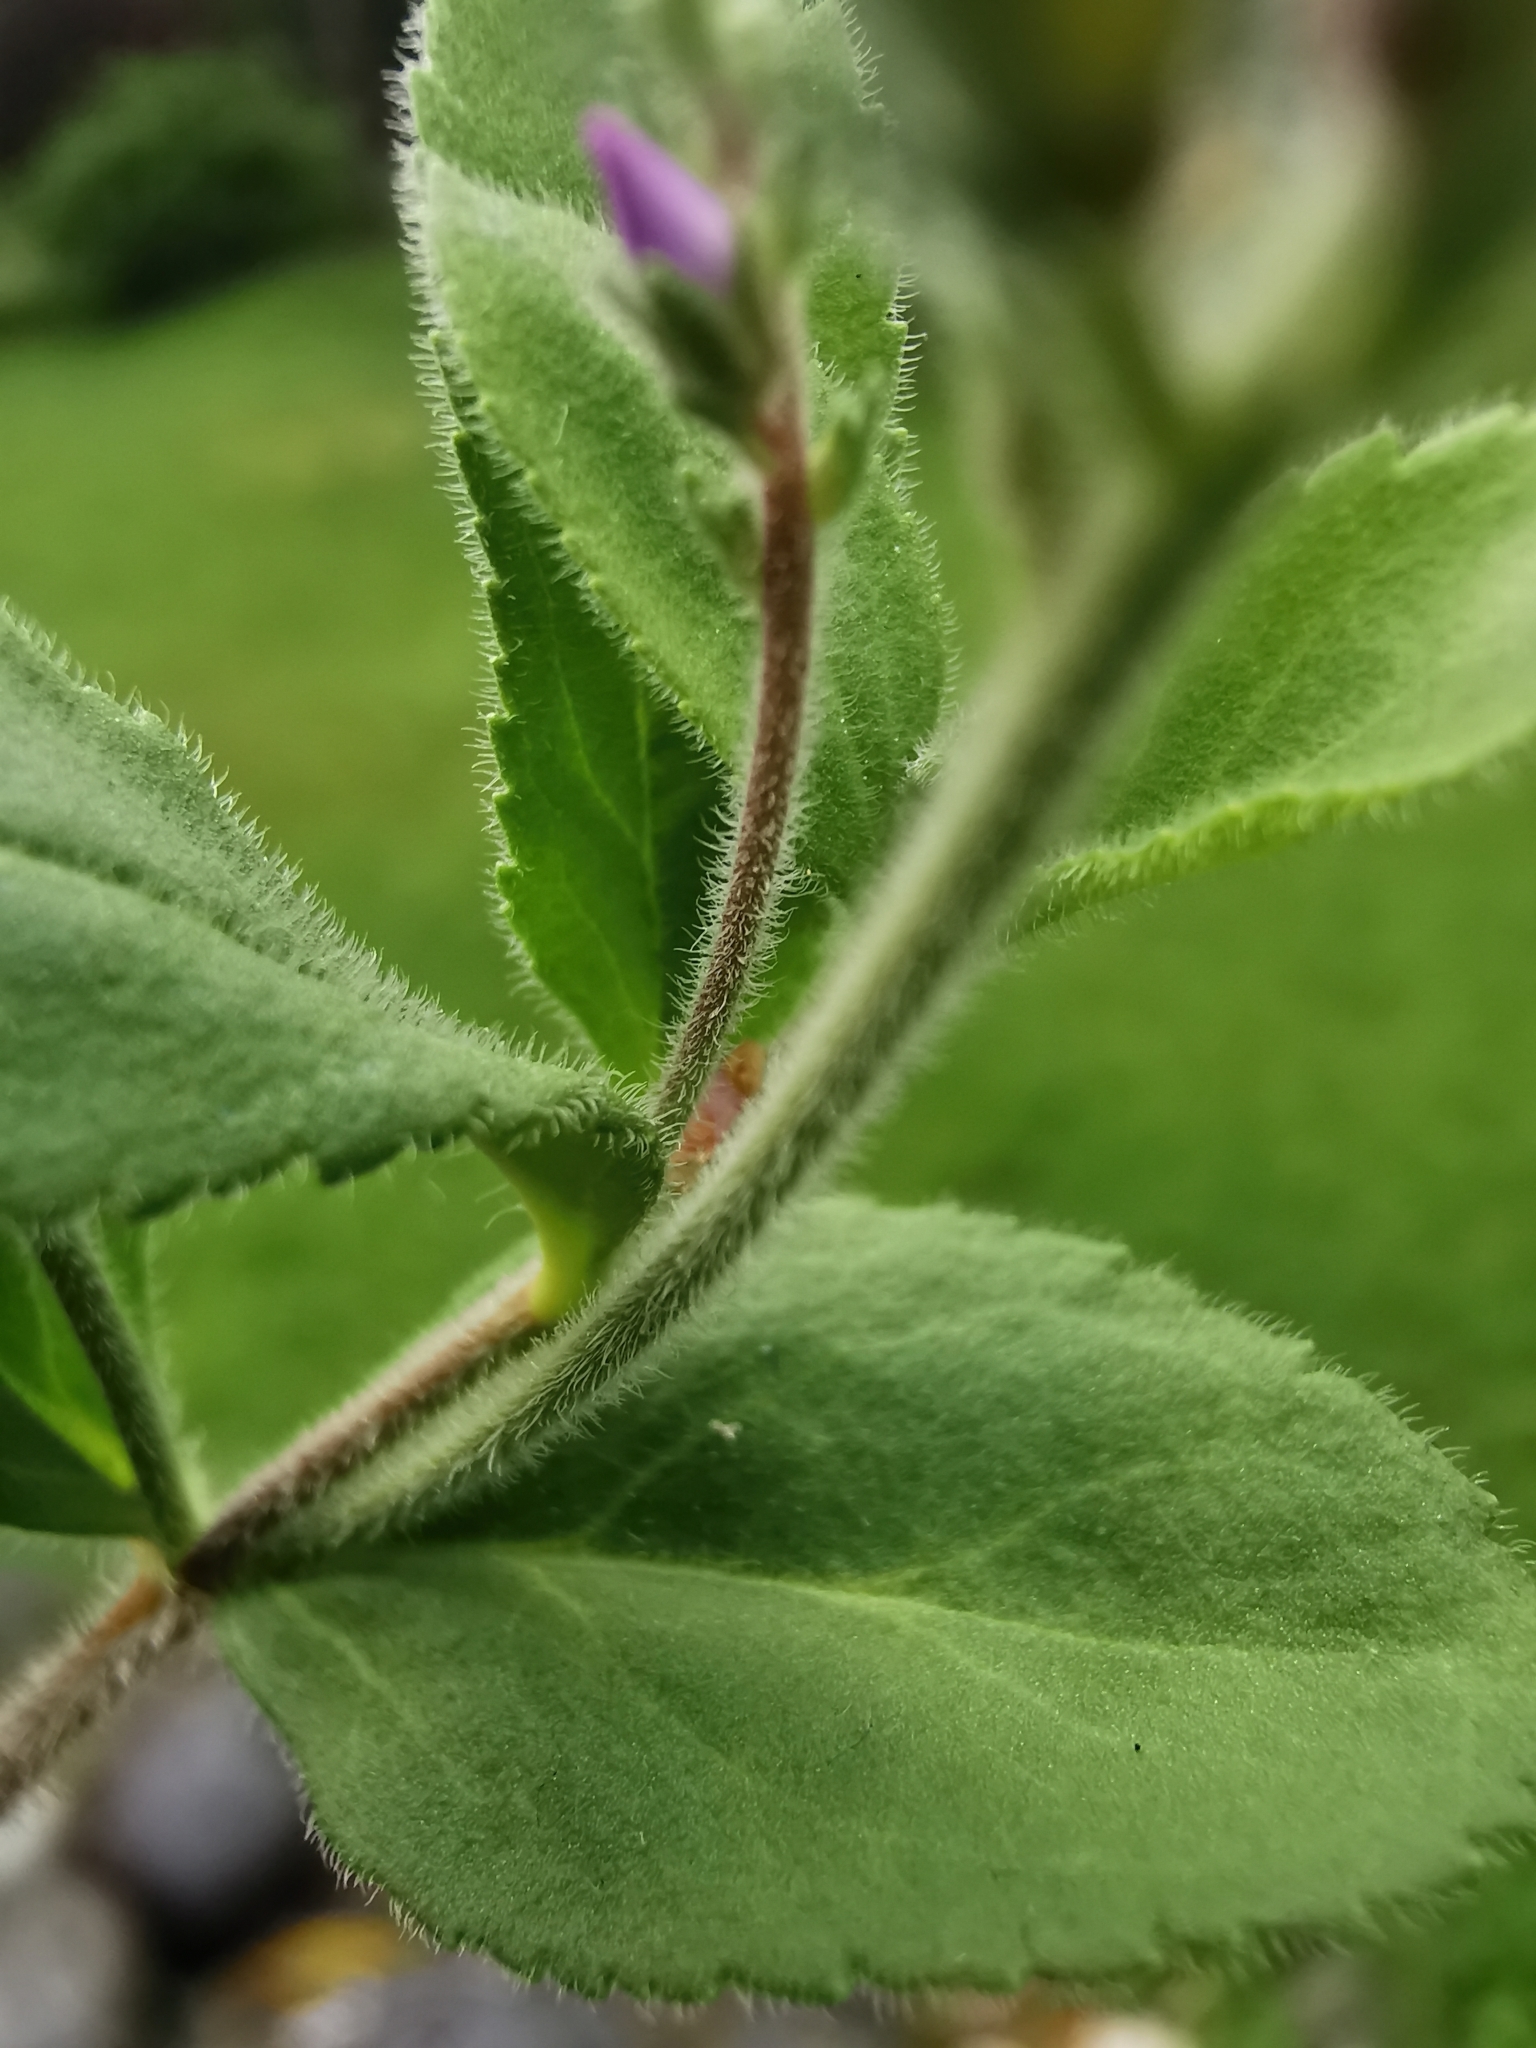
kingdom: Plantae
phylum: Tracheophyta
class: Magnoliopsida
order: Lamiales
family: Plantaginaceae
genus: Veronica
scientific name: Veronica officinalis
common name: Common speedwell
